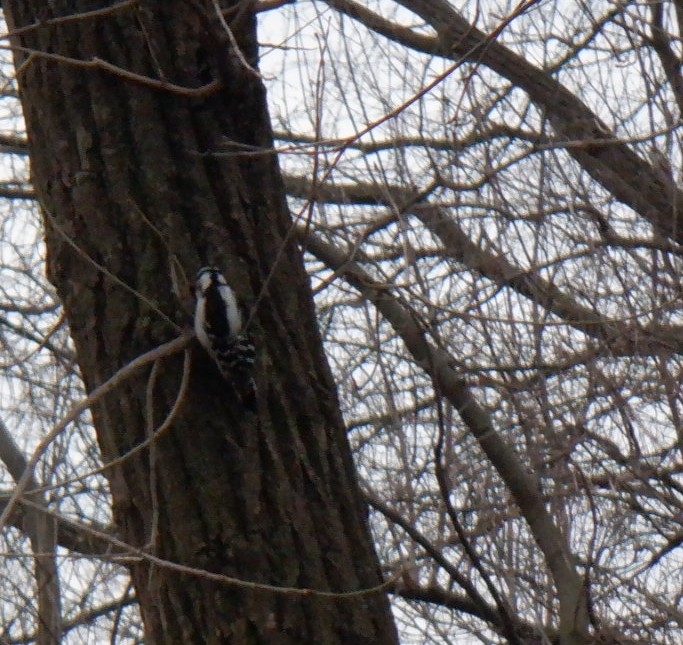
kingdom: Animalia
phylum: Chordata
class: Aves
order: Piciformes
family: Picidae
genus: Dryobates
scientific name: Dryobates pubescens
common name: Downy woodpecker
